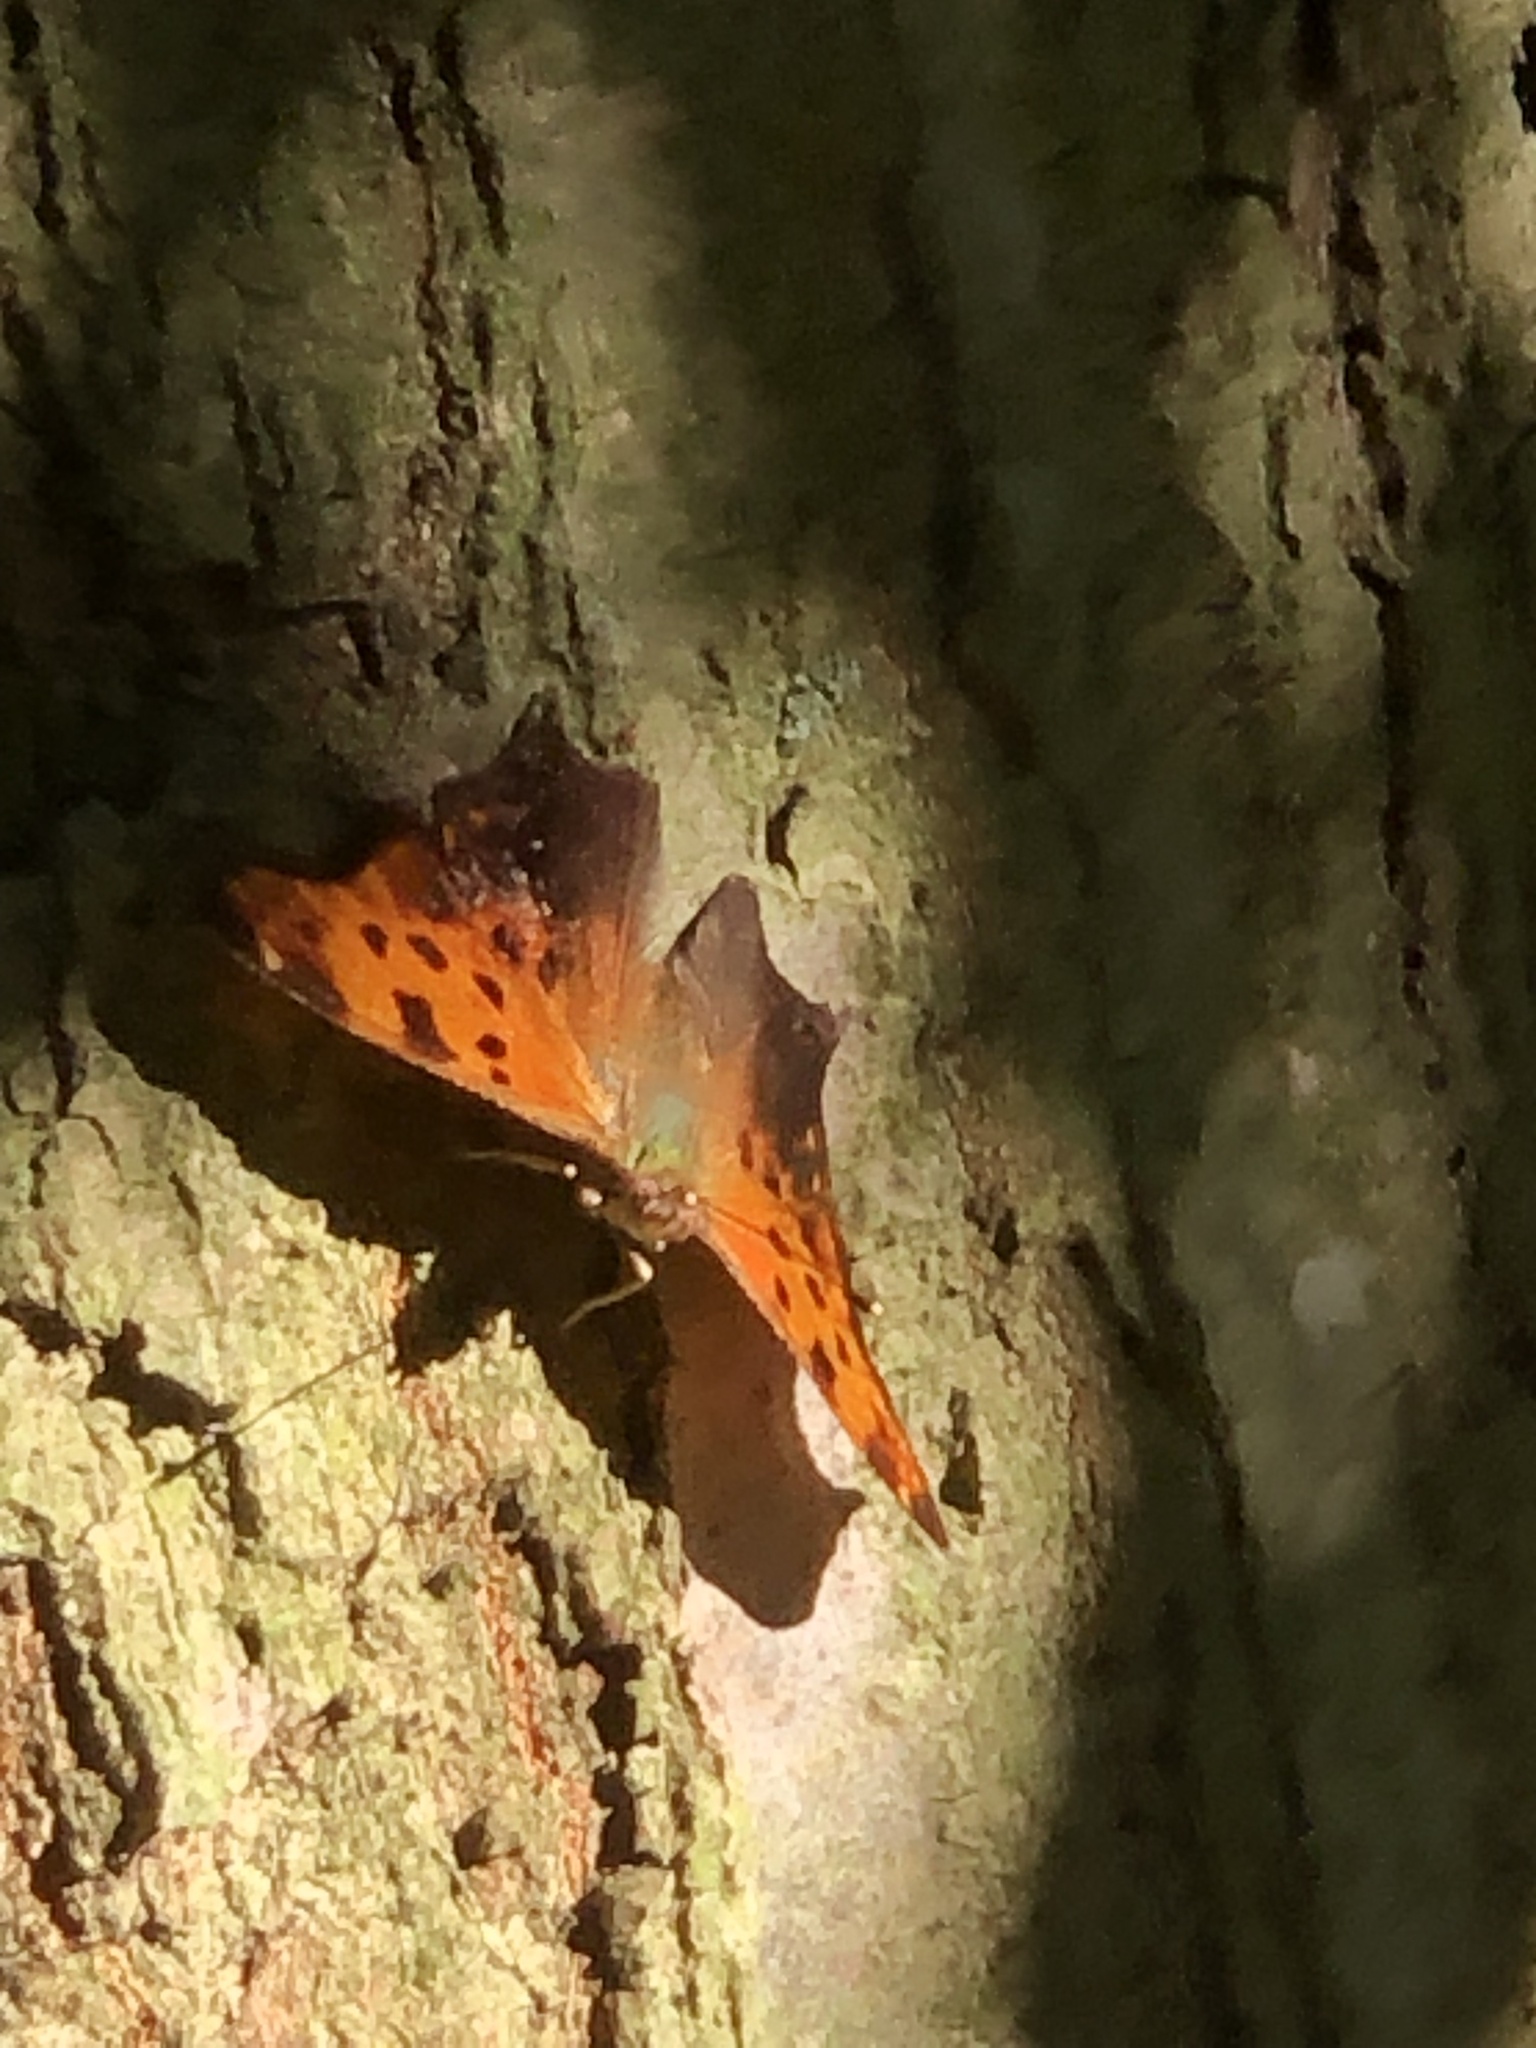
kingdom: Animalia
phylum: Arthropoda
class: Insecta
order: Lepidoptera
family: Nymphalidae
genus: Polygonia
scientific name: Polygonia comma
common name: Eastern comma
